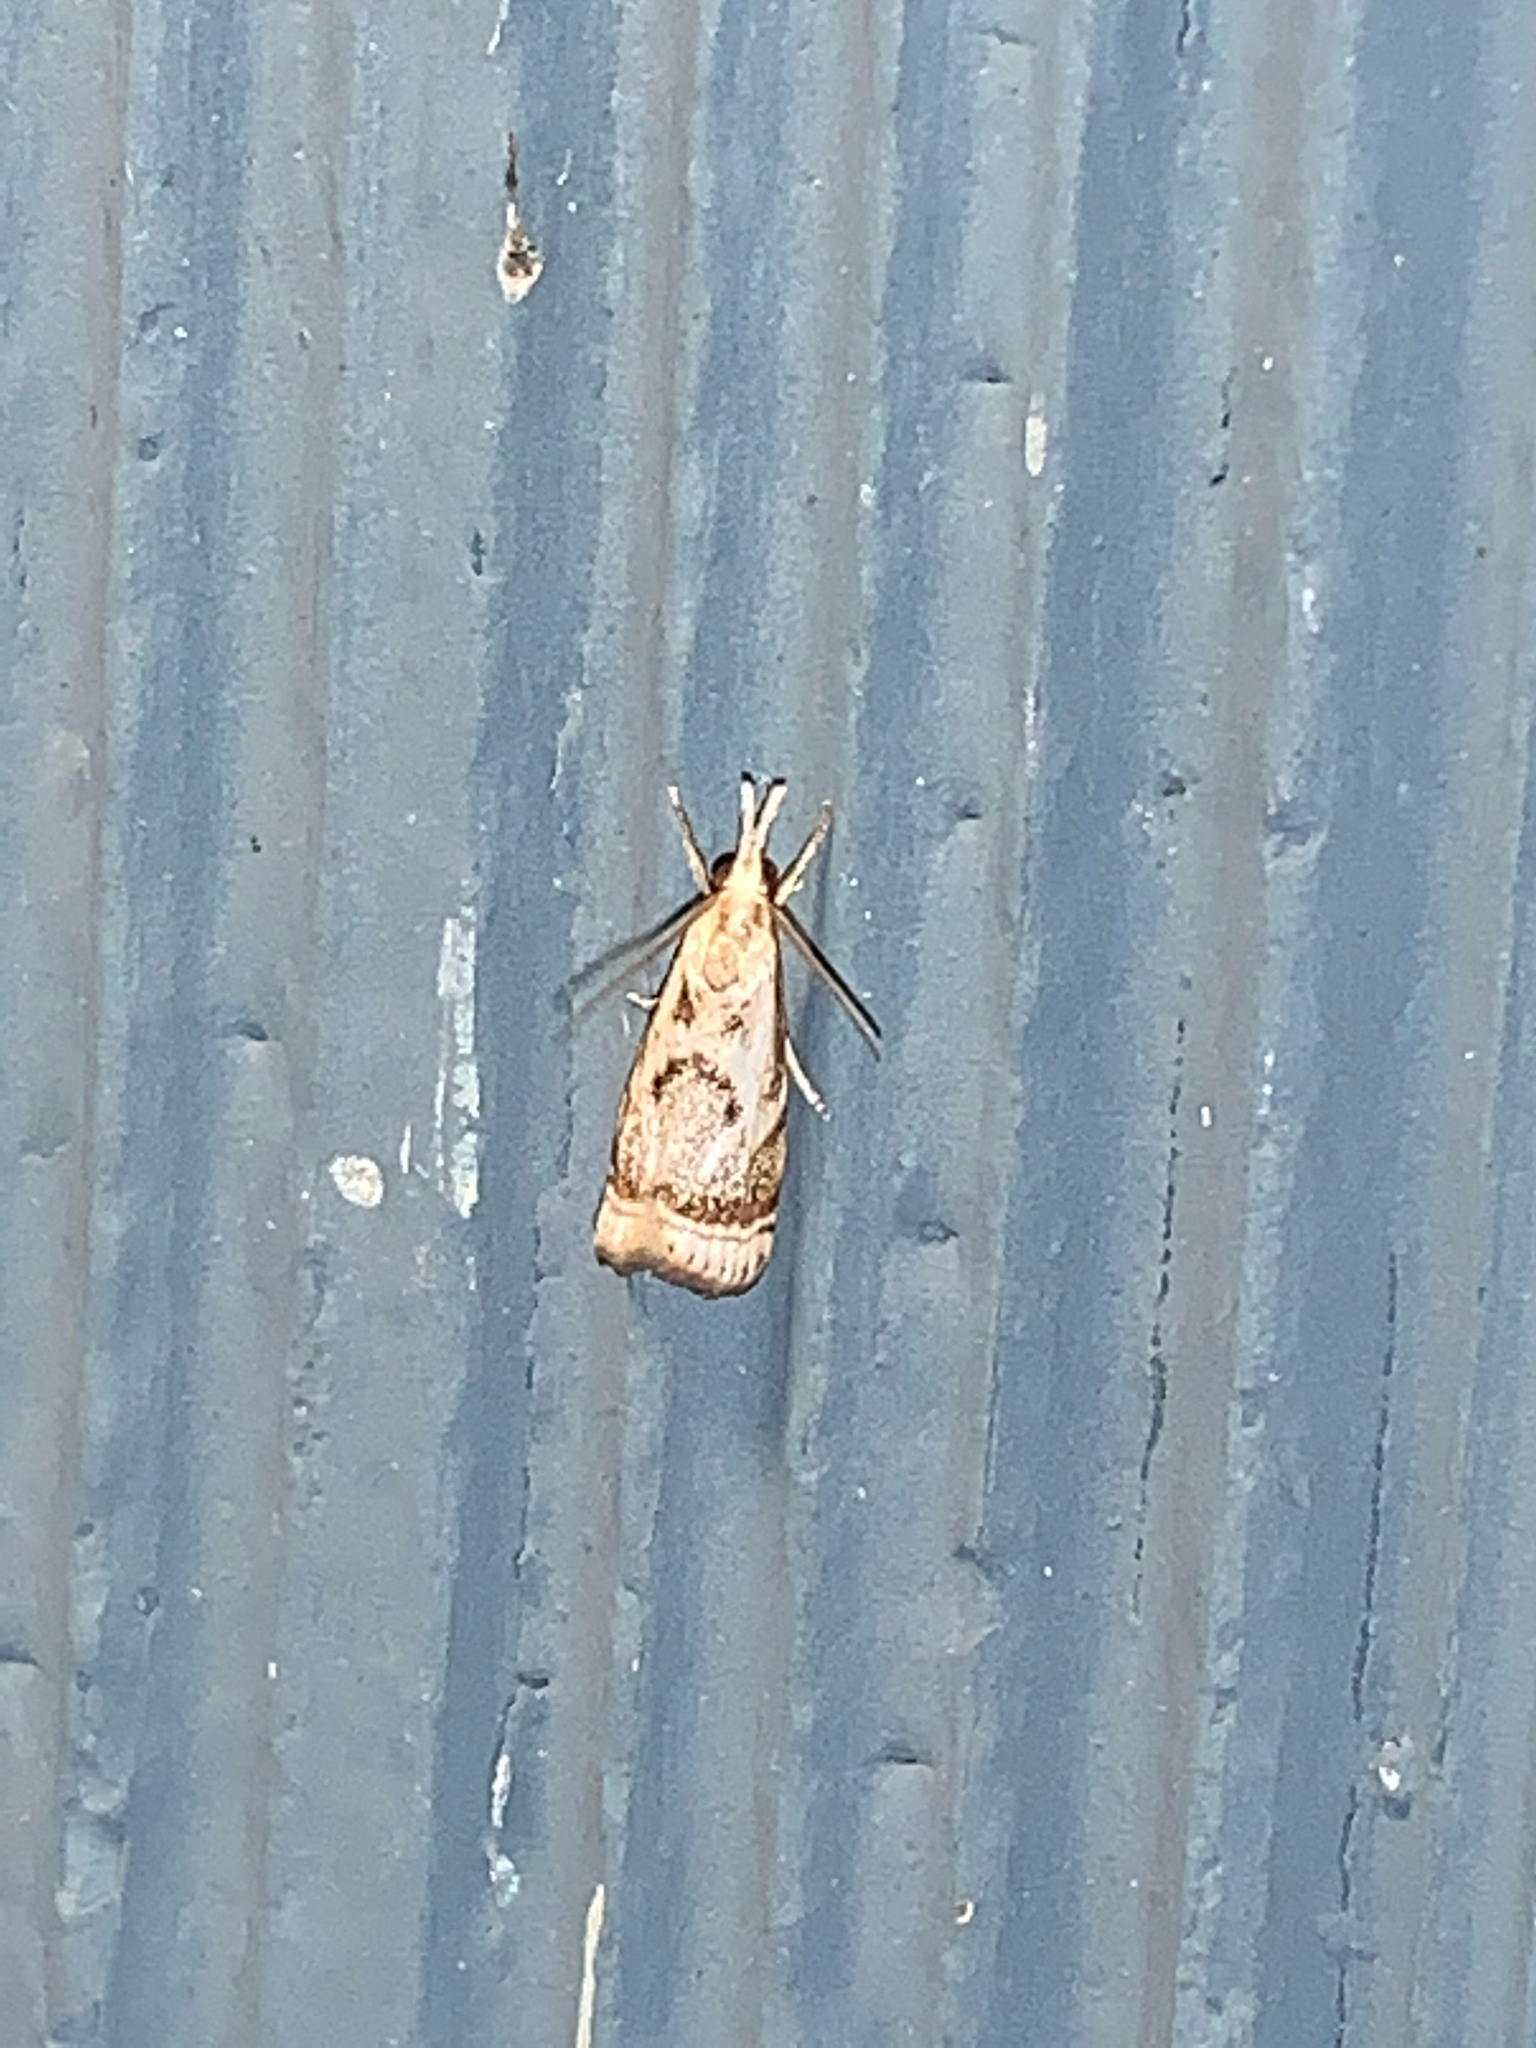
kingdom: Animalia
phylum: Arthropoda
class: Insecta
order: Lepidoptera
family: Crambidae
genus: Microcrambus
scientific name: Microcrambus elegans
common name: Elegant grass-veneer
